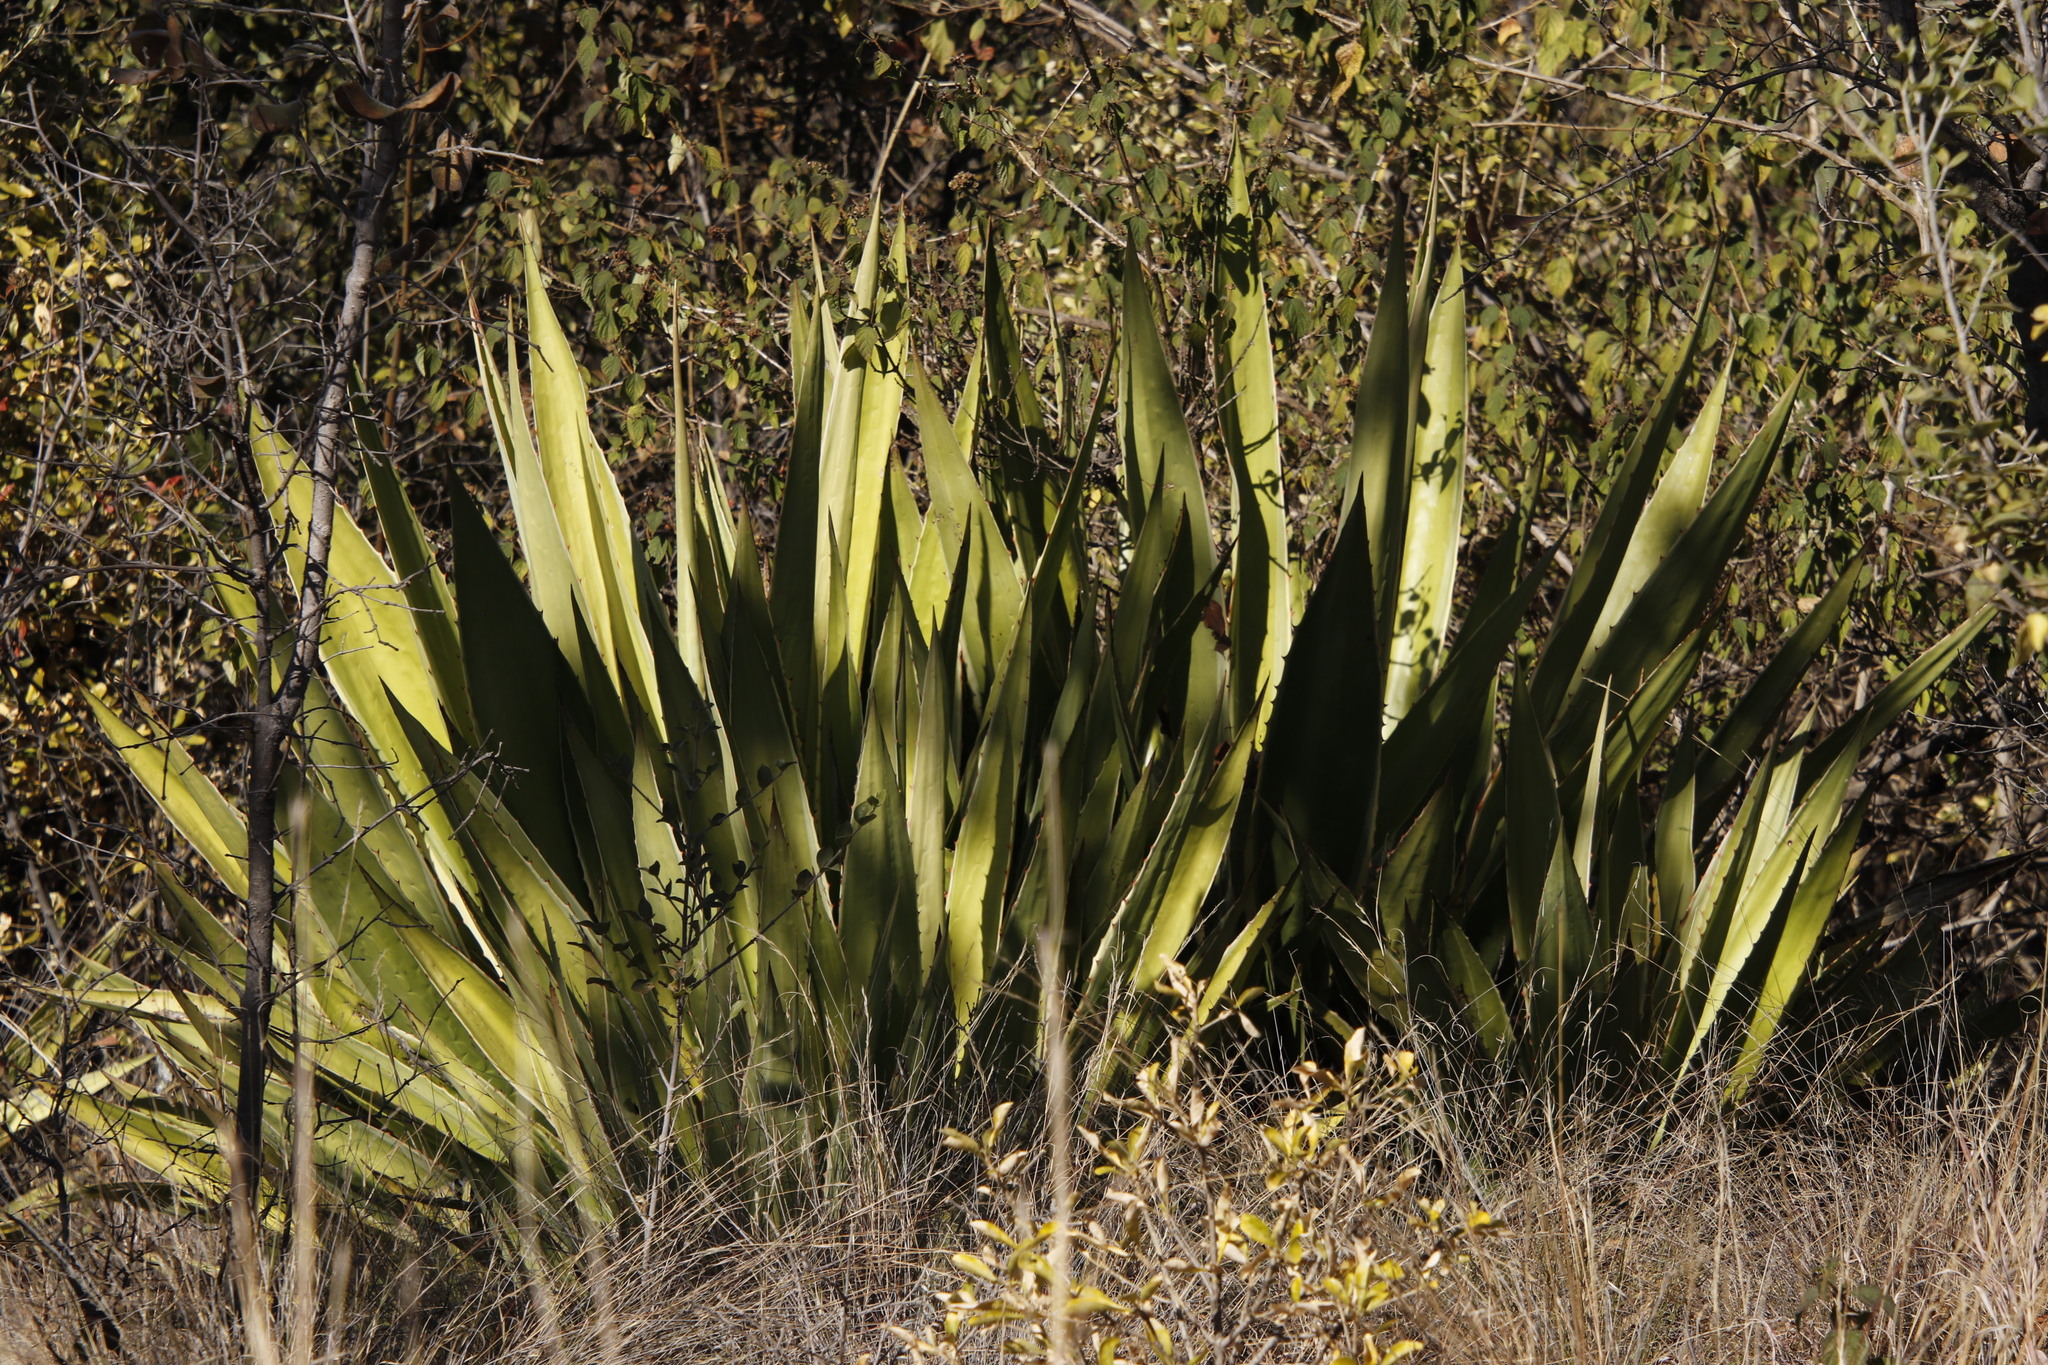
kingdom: Plantae
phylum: Tracheophyta
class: Liliopsida
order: Asparagales
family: Asparagaceae
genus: Furcraea
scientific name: Furcraea foetida
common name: Mauritius hemp
